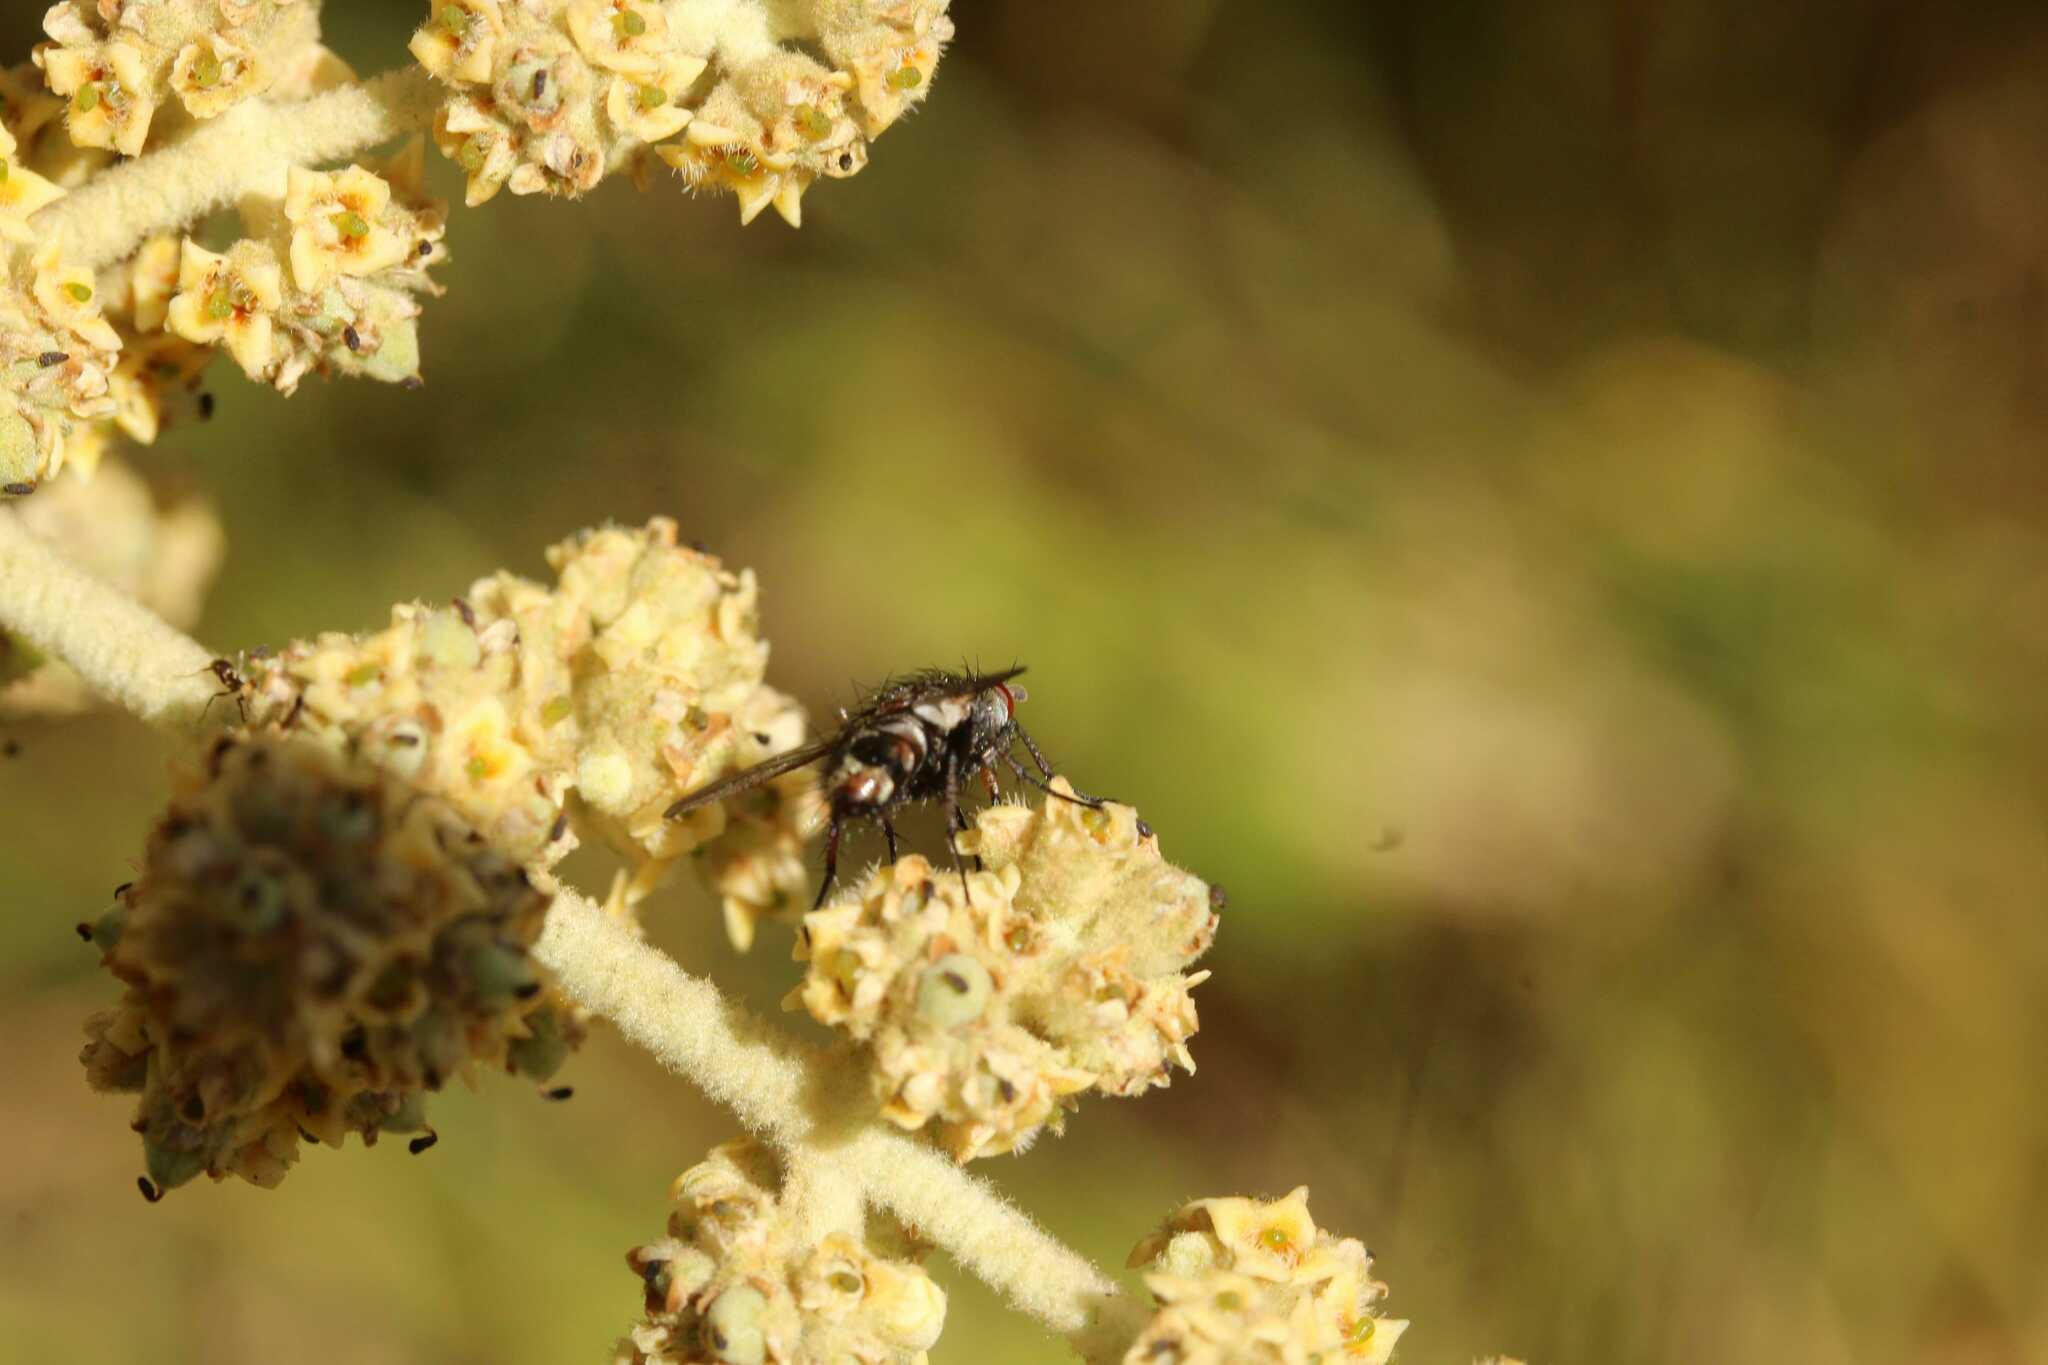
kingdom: Animalia
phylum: Arthropoda
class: Insecta
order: Diptera
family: Tachinidae
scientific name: Tachinidae
